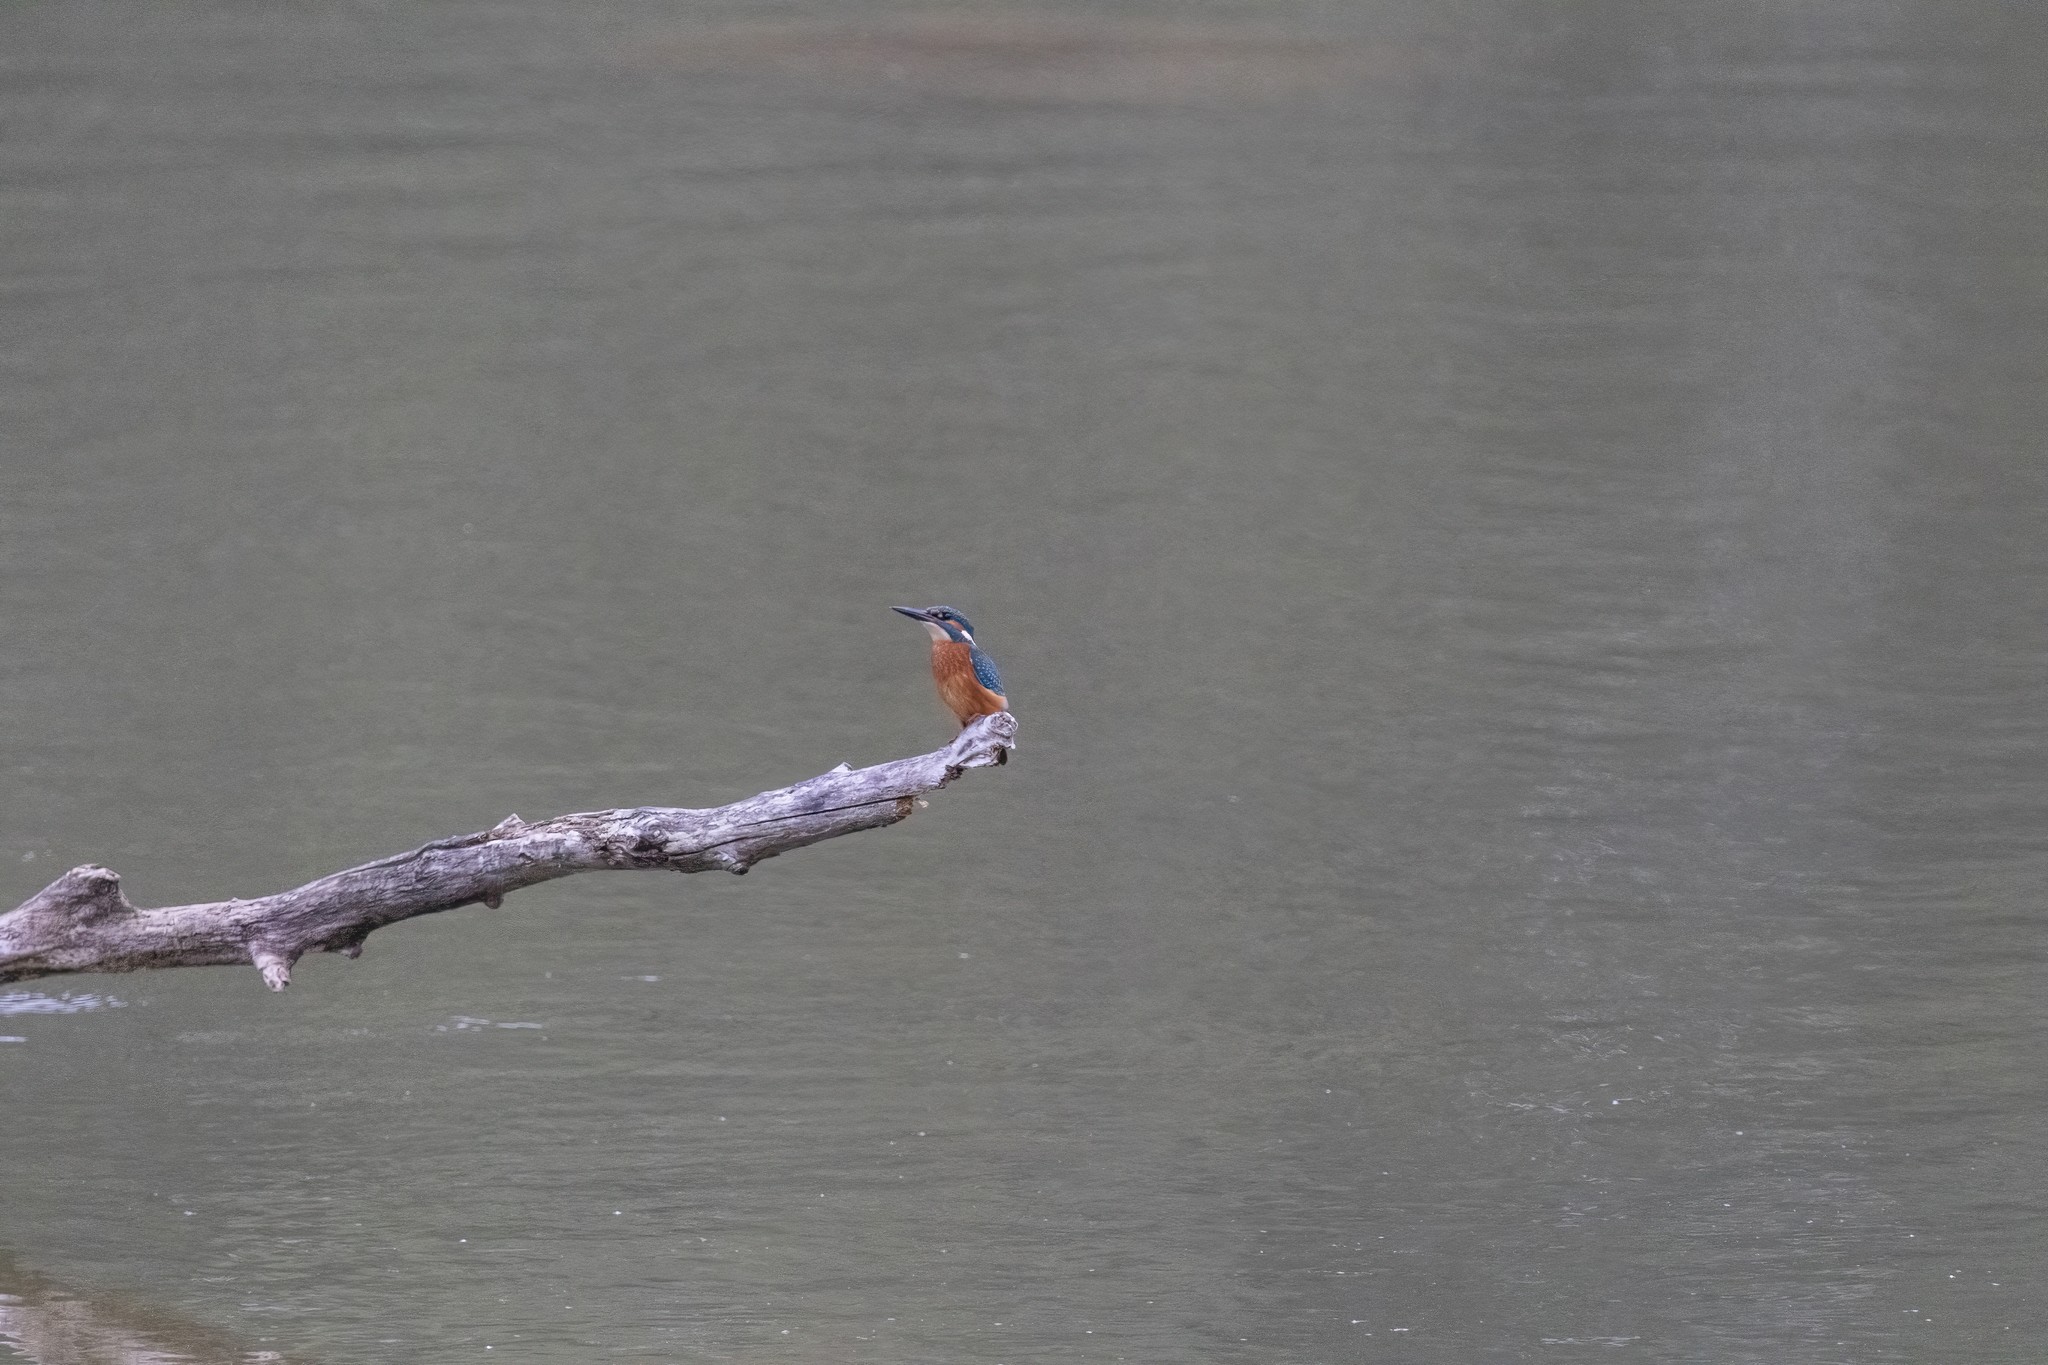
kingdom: Animalia
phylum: Chordata
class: Aves
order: Coraciiformes
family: Alcedinidae
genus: Alcedo
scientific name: Alcedo atthis
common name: Common kingfisher
